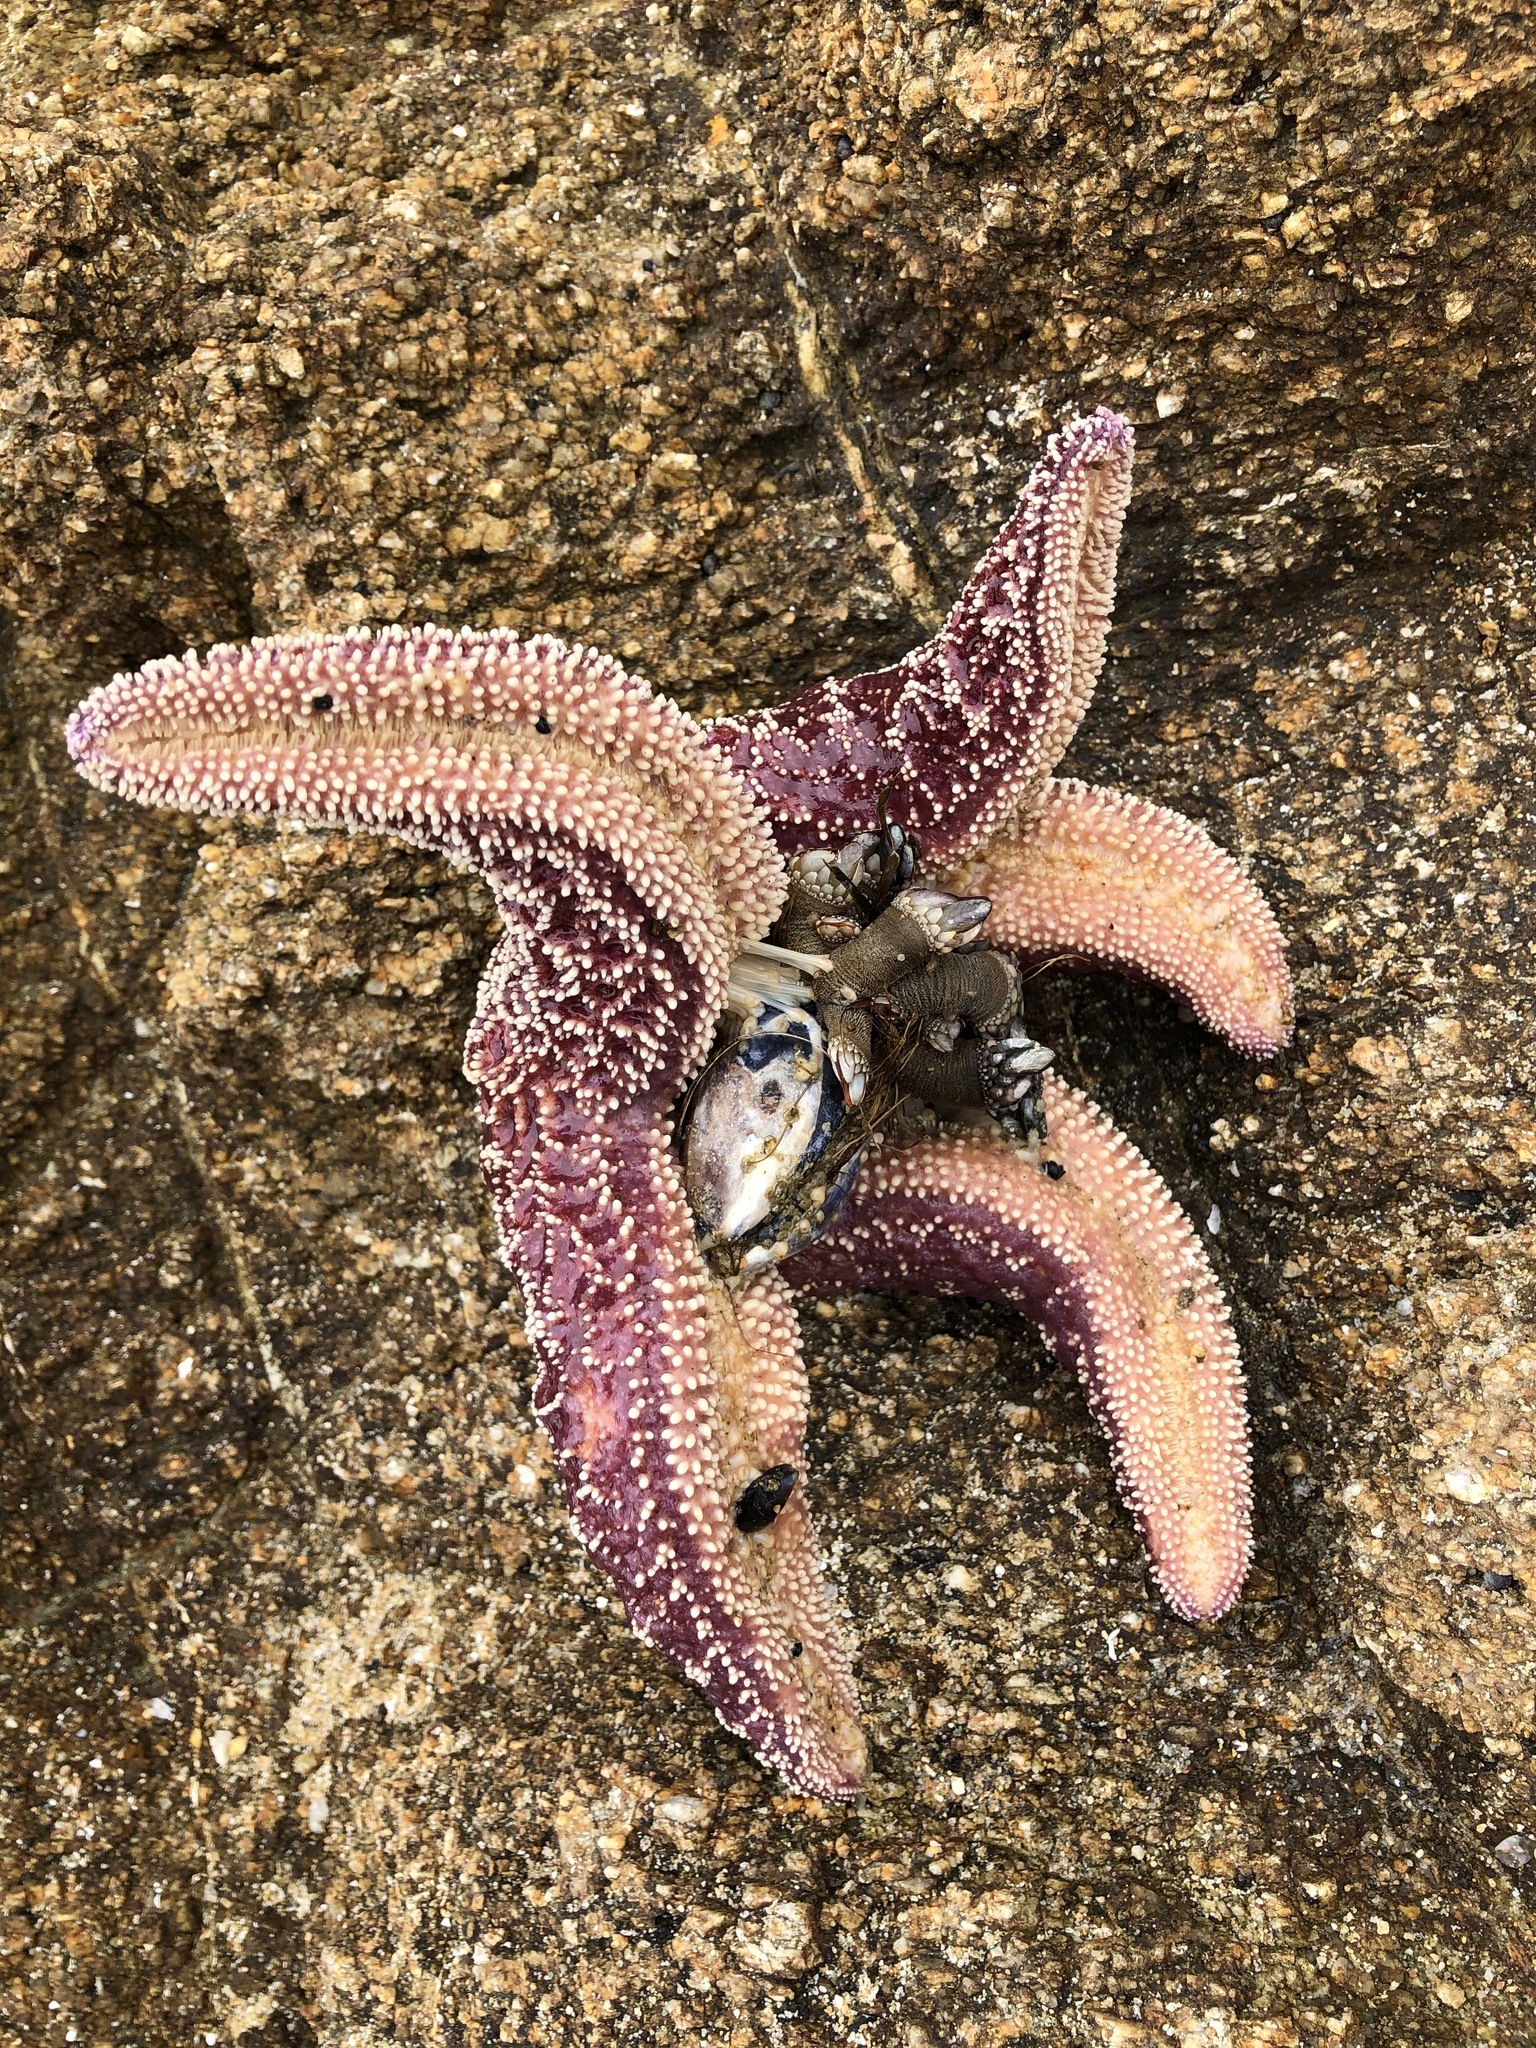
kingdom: Animalia
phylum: Echinodermata
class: Asteroidea
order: Forcipulatida
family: Asteriidae
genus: Pisaster
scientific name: Pisaster ochraceus
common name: Ochre stars
